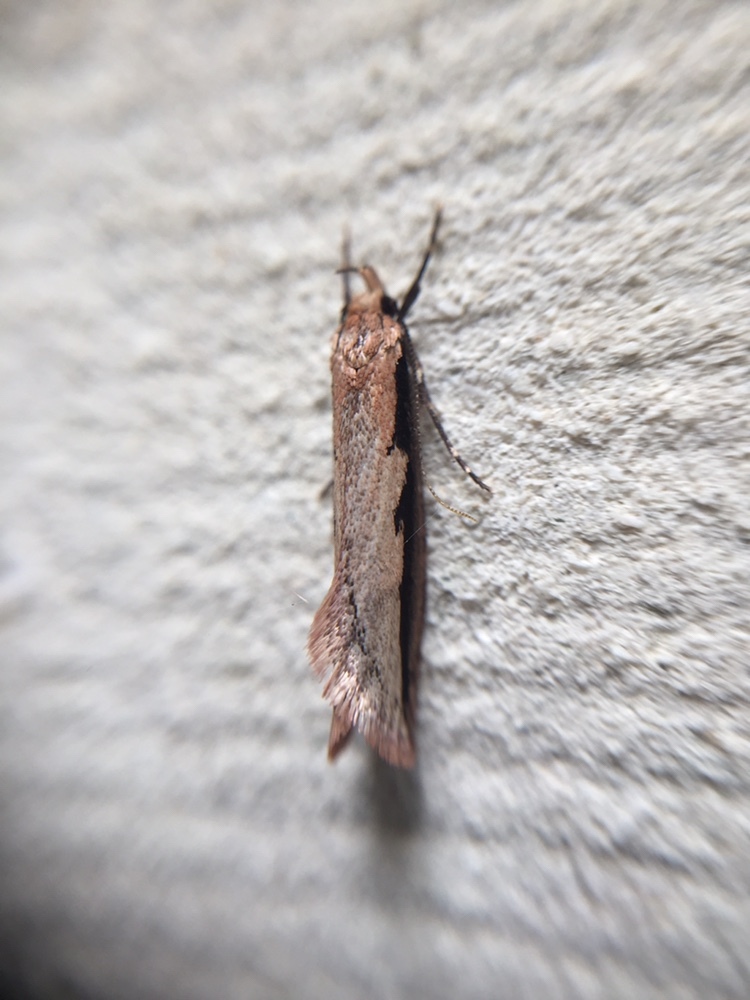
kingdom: Animalia
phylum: Arthropoda
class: Insecta
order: Lepidoptera
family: Oecophoridae
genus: Leptocroca
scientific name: Leptocroca sanguinolenta
